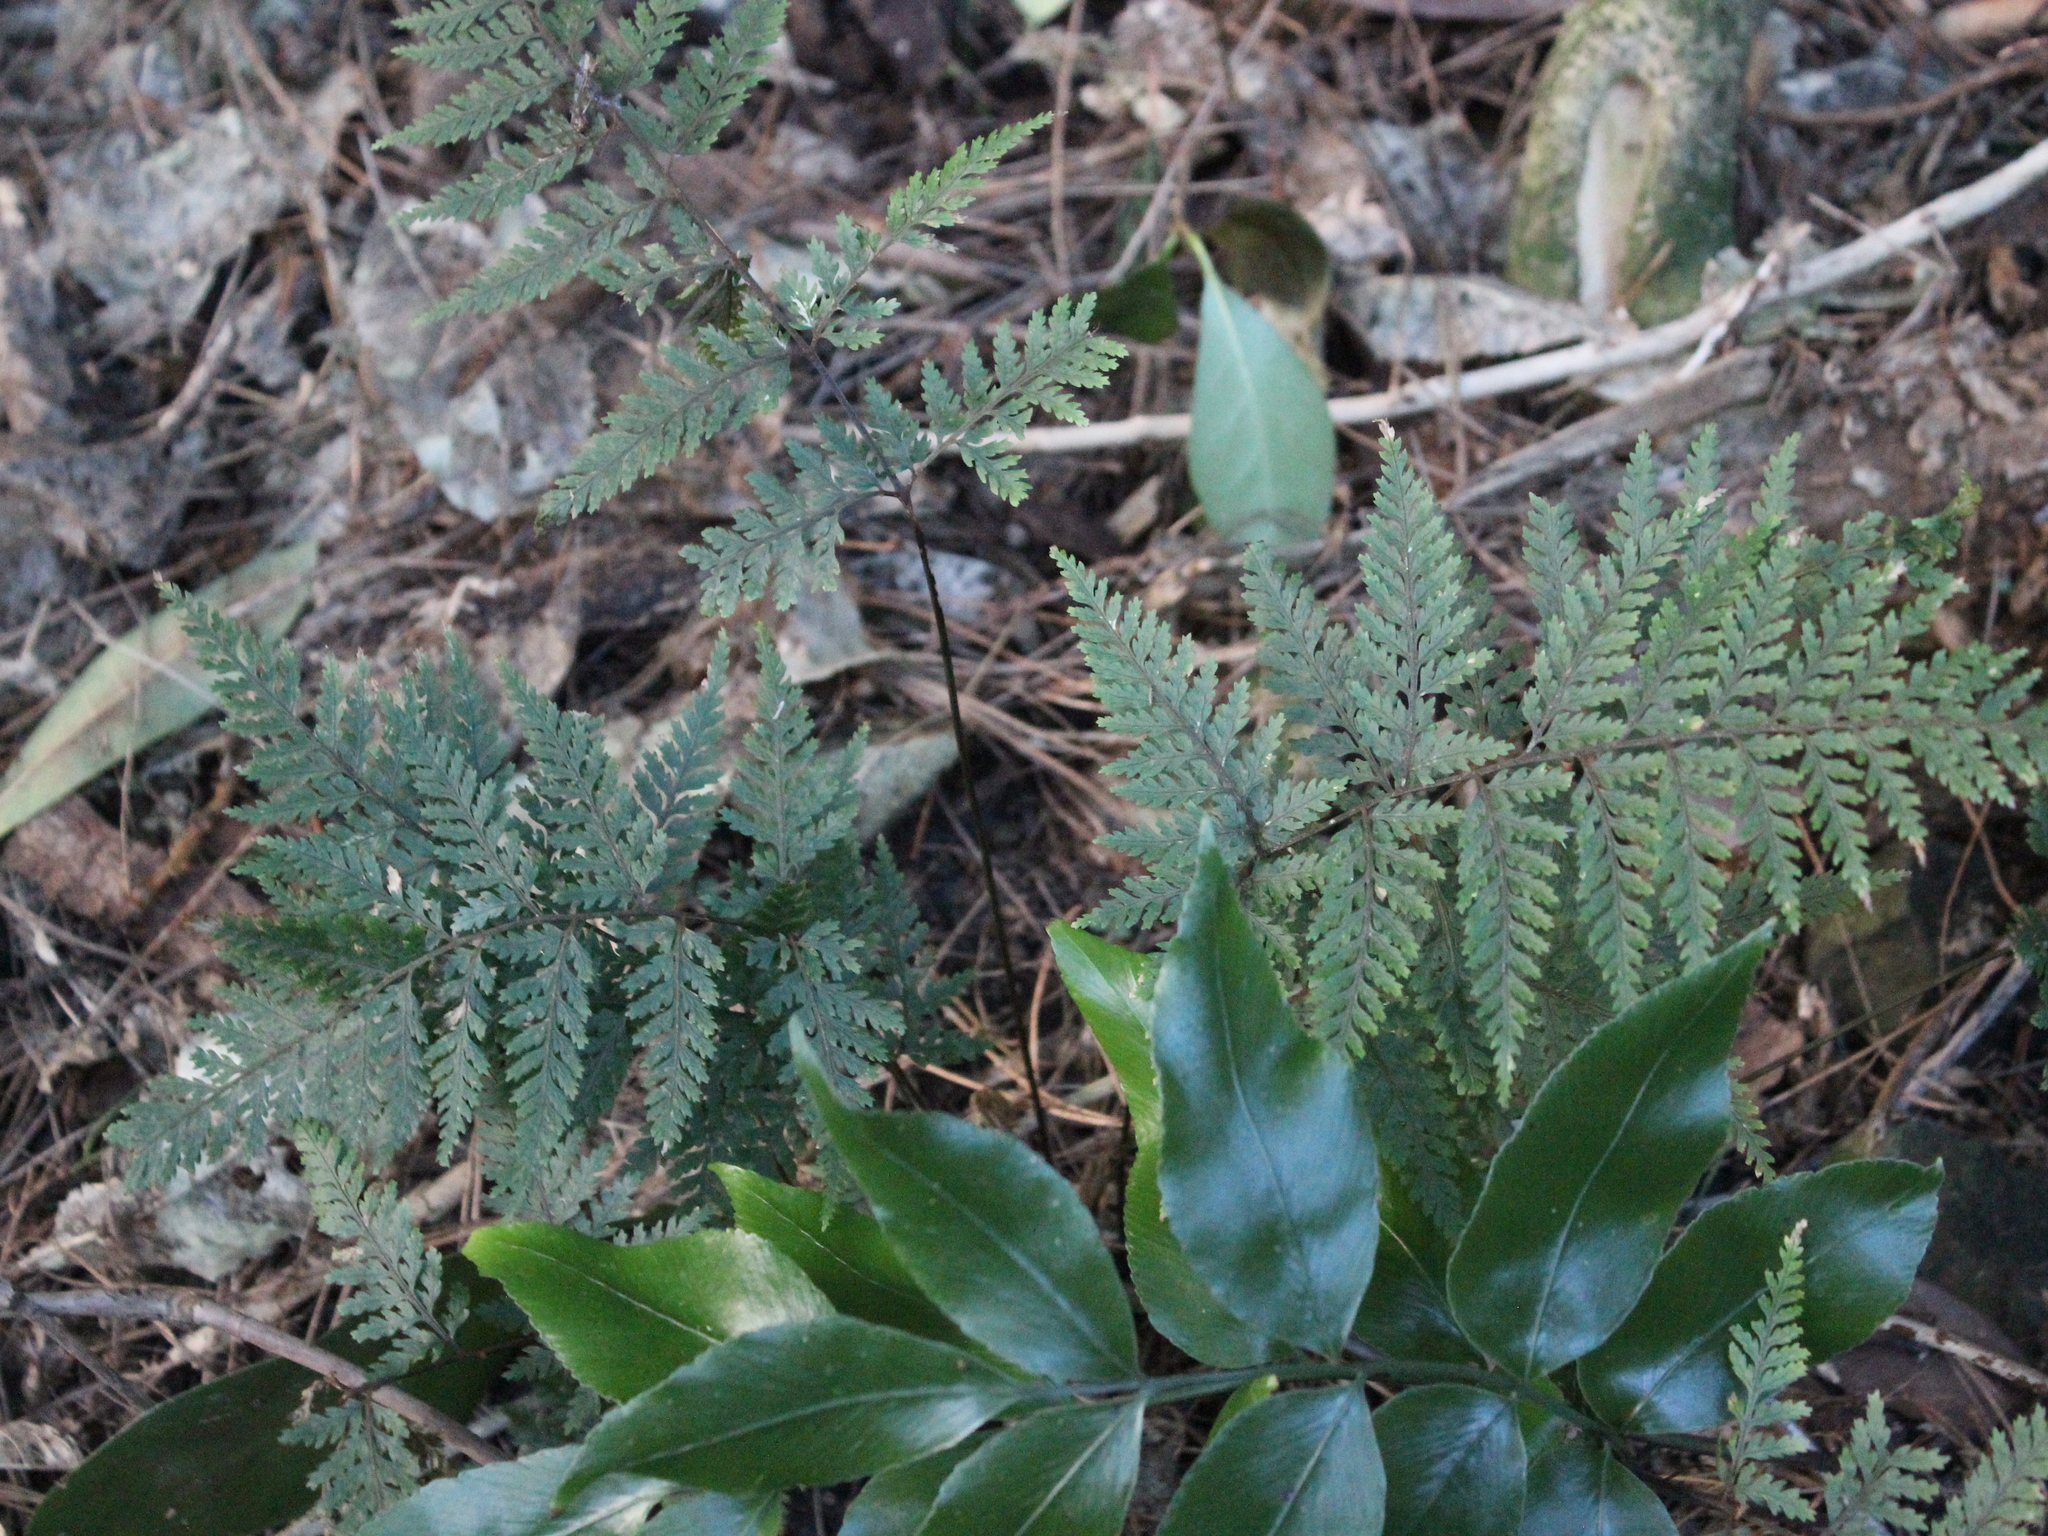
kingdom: Plantae
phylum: Tracheophyta
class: Polypodiopsida
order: Polypodiales
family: Dryopteridaceae
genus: Parapolystichum
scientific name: Parapolystichum glabellum
